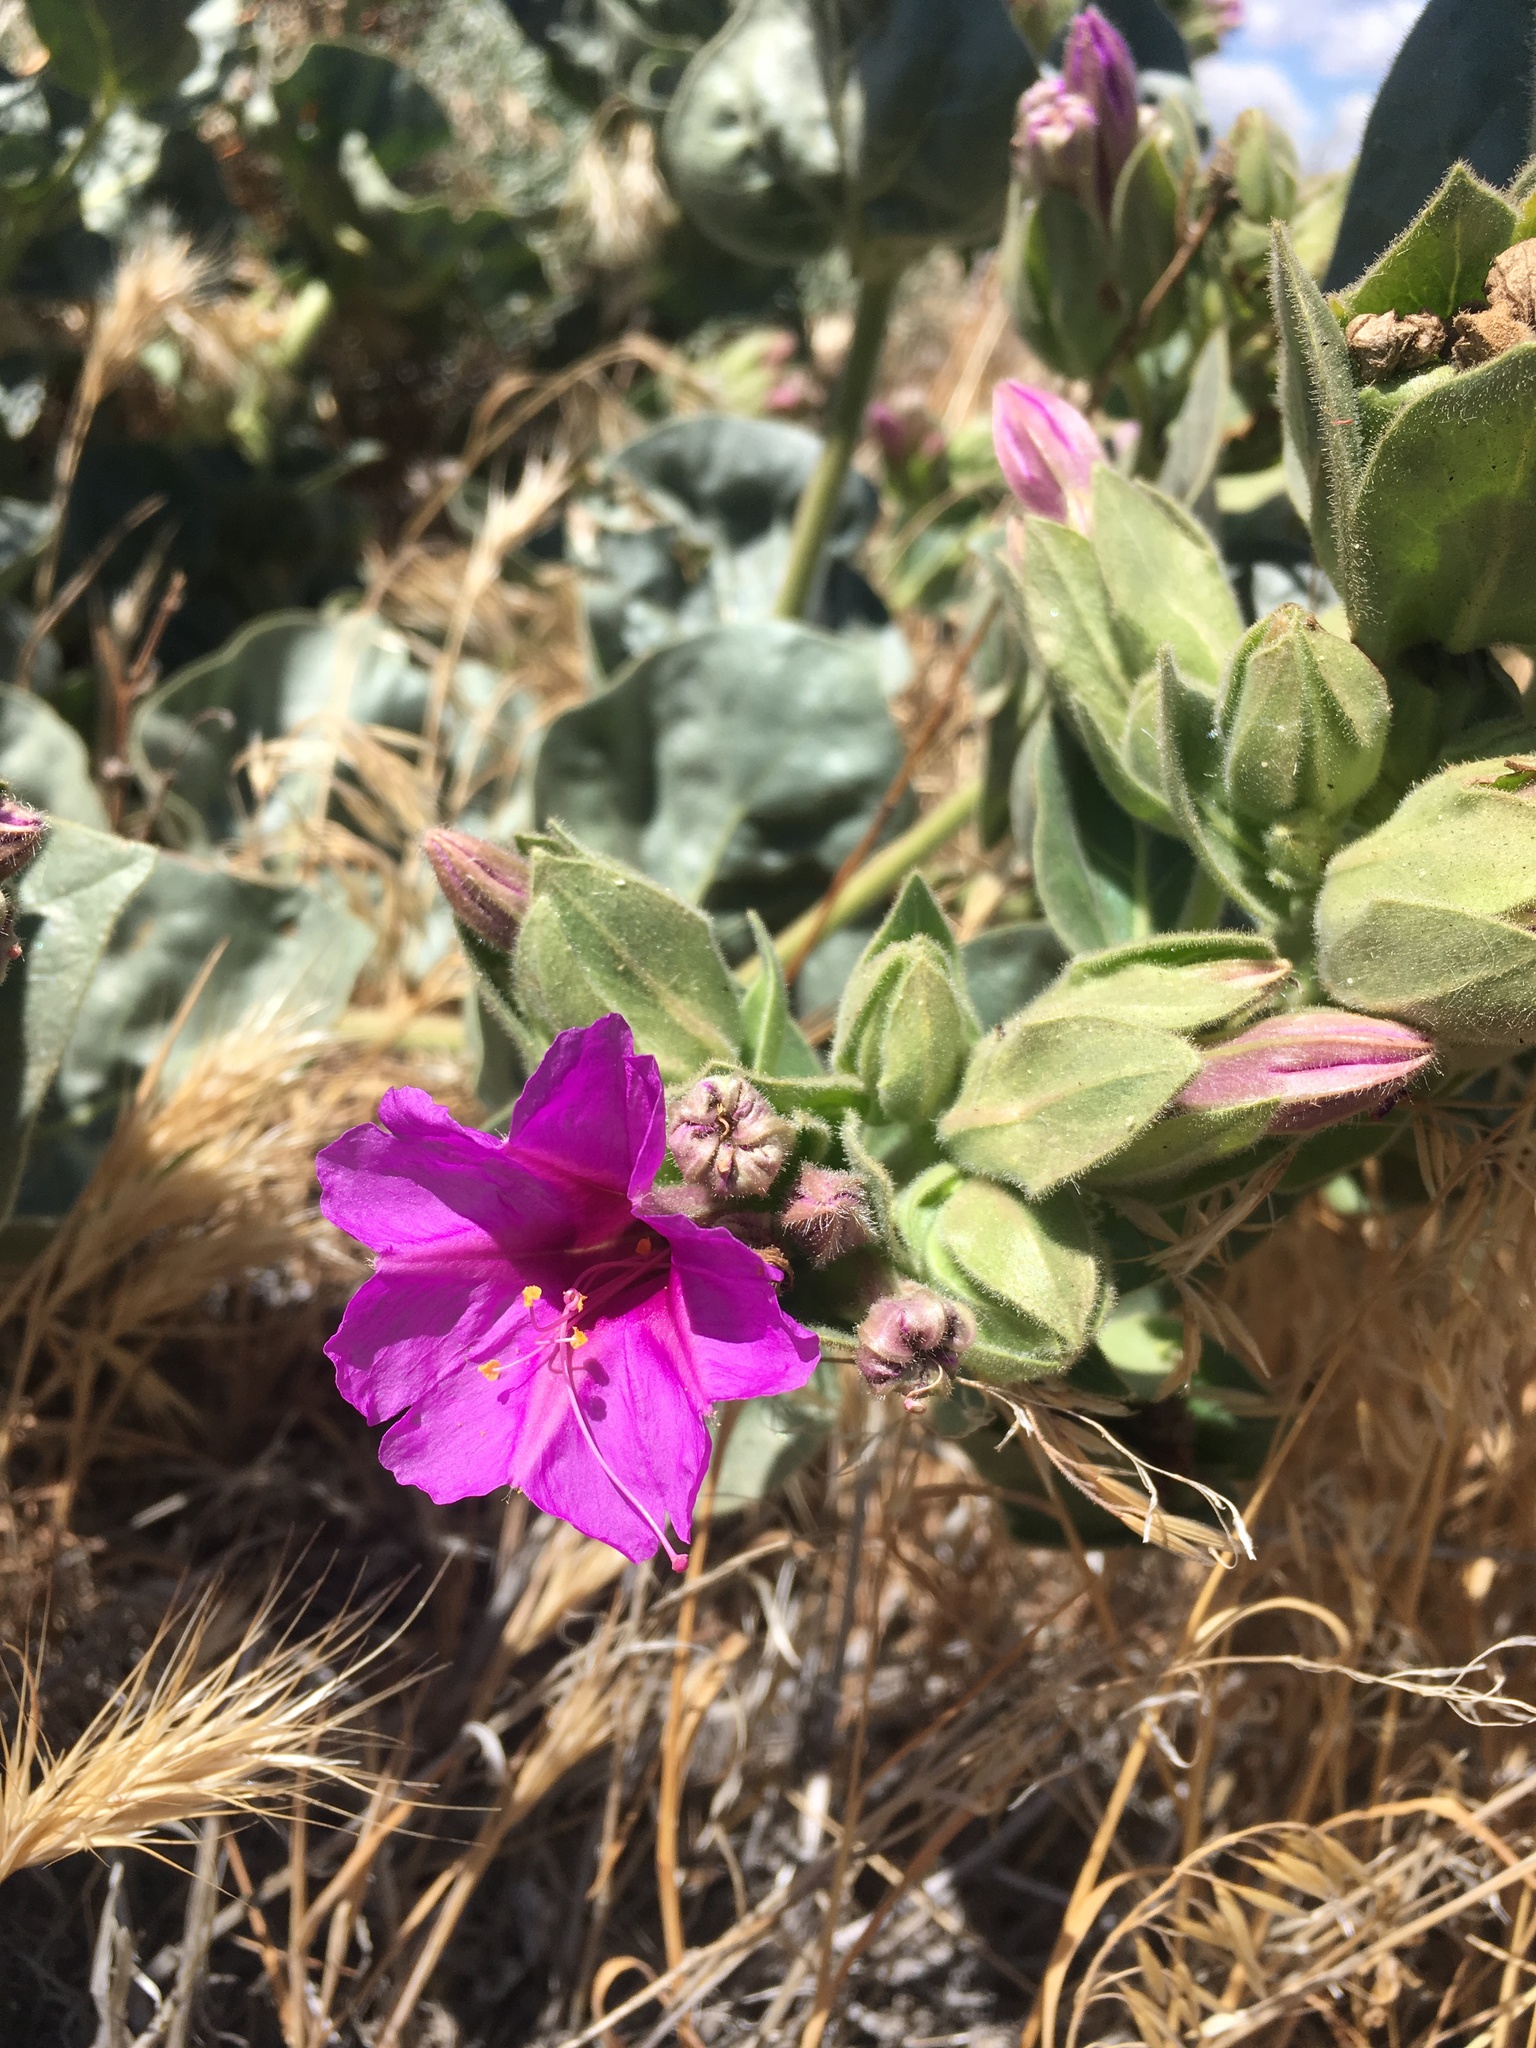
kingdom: Plantae
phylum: Tracheophyta
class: Magnoliopsida
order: Caryophyllales
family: Nyctaginaceae
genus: Mirabilis
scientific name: Mirabilis multiflora
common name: Froebel's four-o'clock
